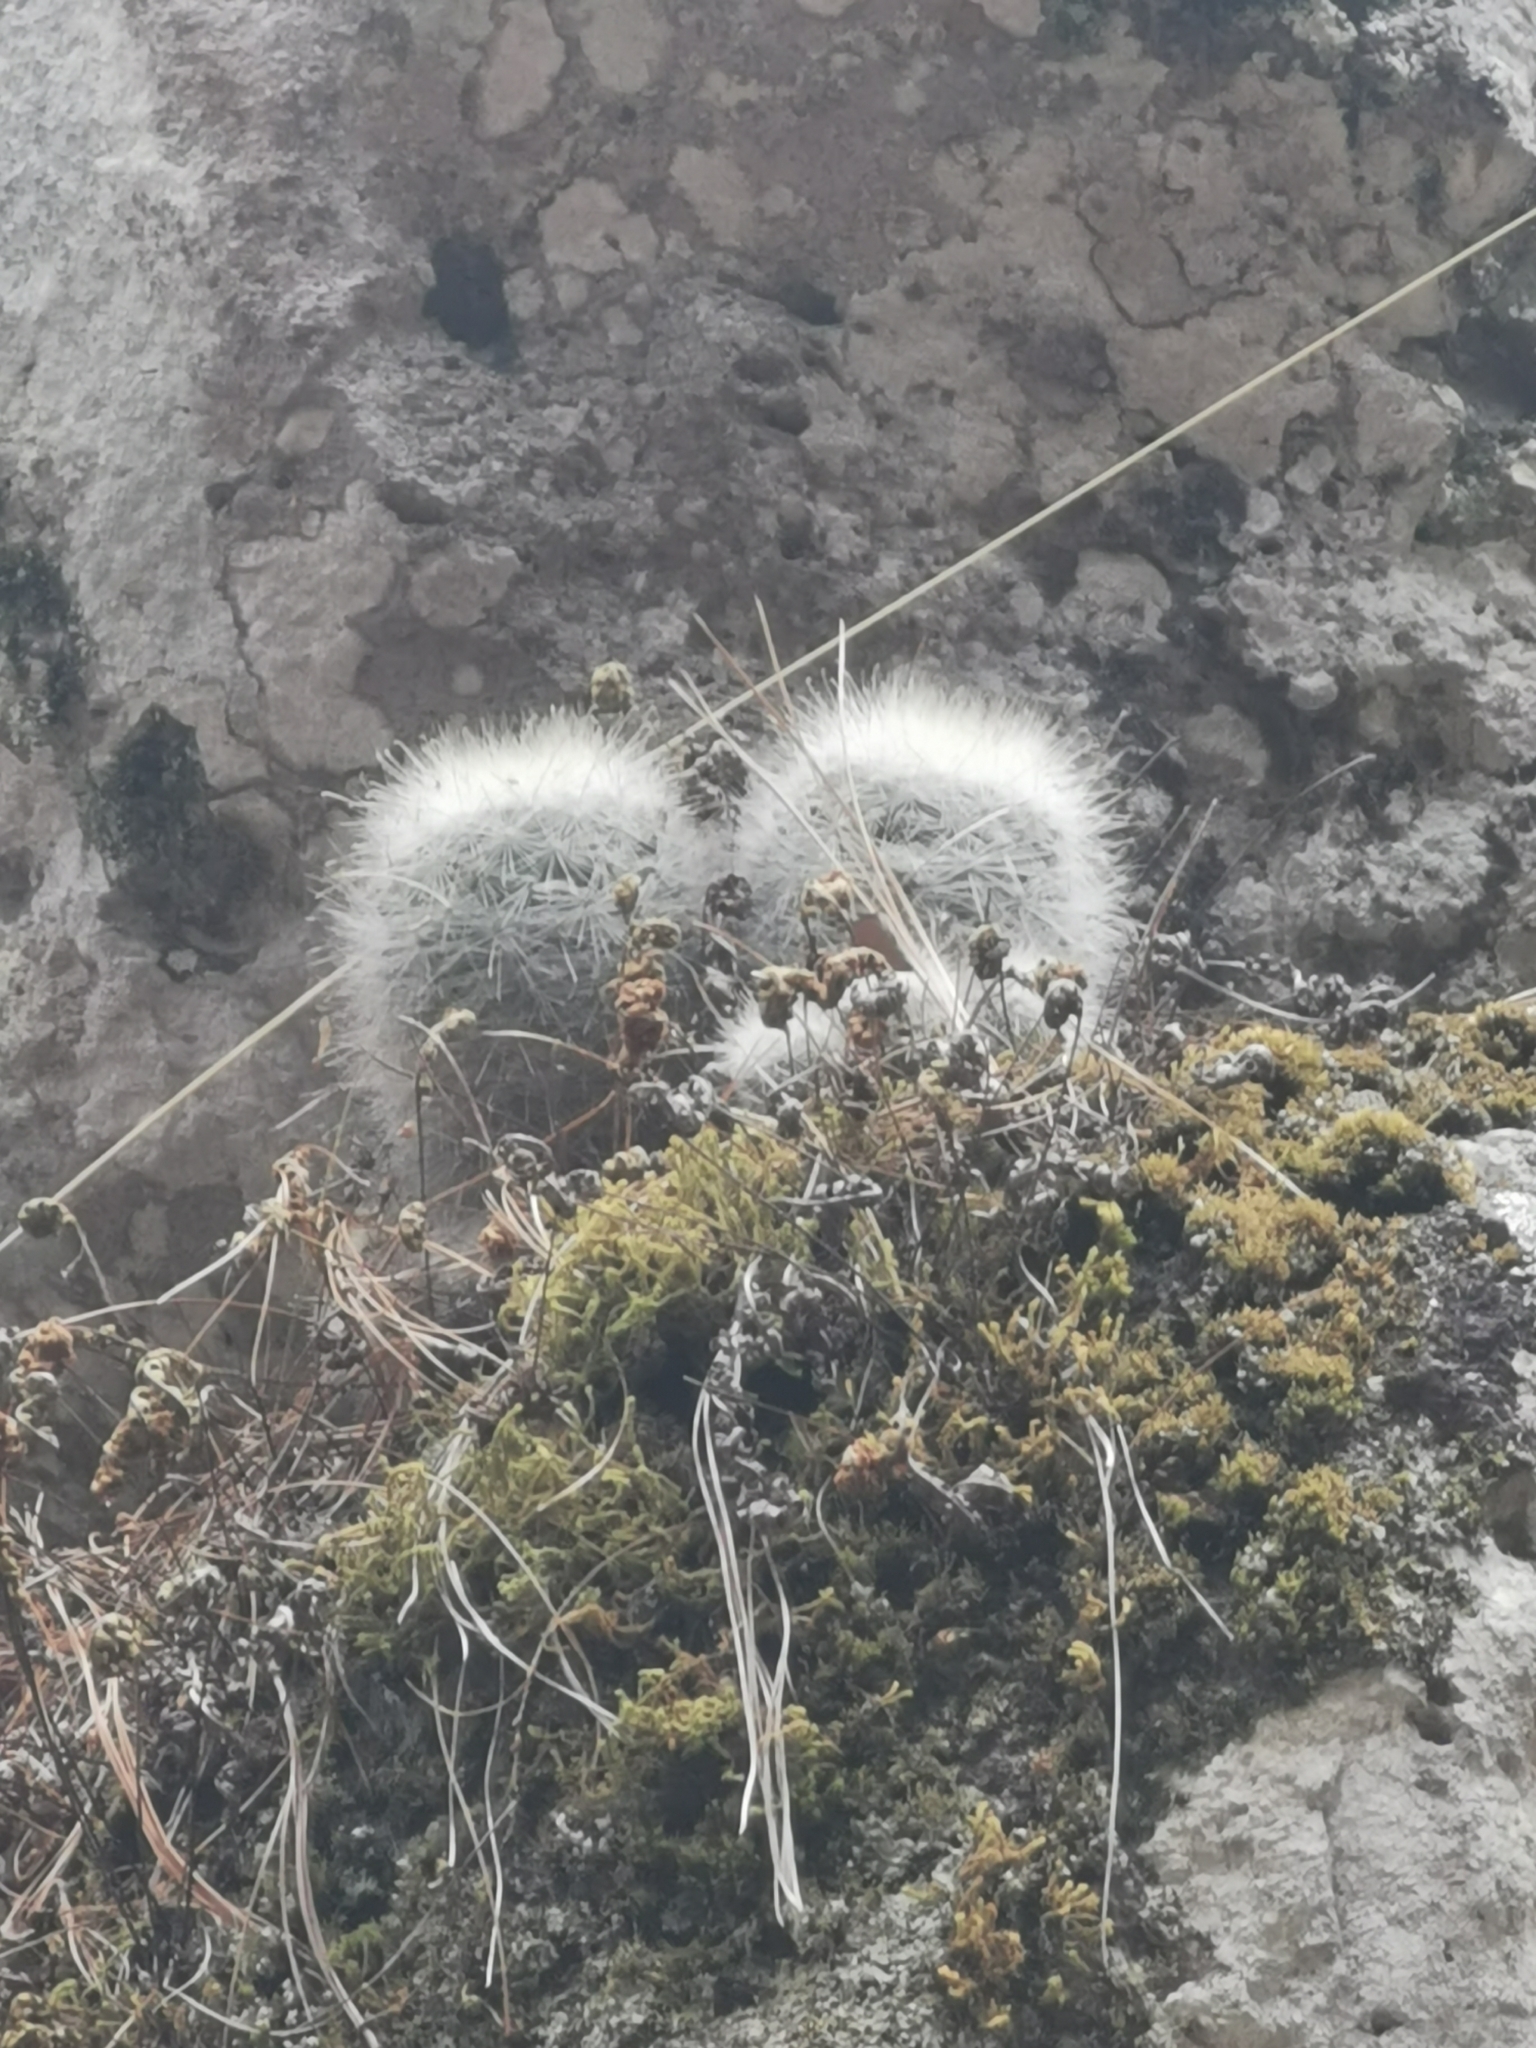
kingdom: Plantae
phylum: Tracheophyta
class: Magnoliopsida
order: Caryophyllales
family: Cactaceae
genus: Mammillaria
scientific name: Mammillaria senilis
